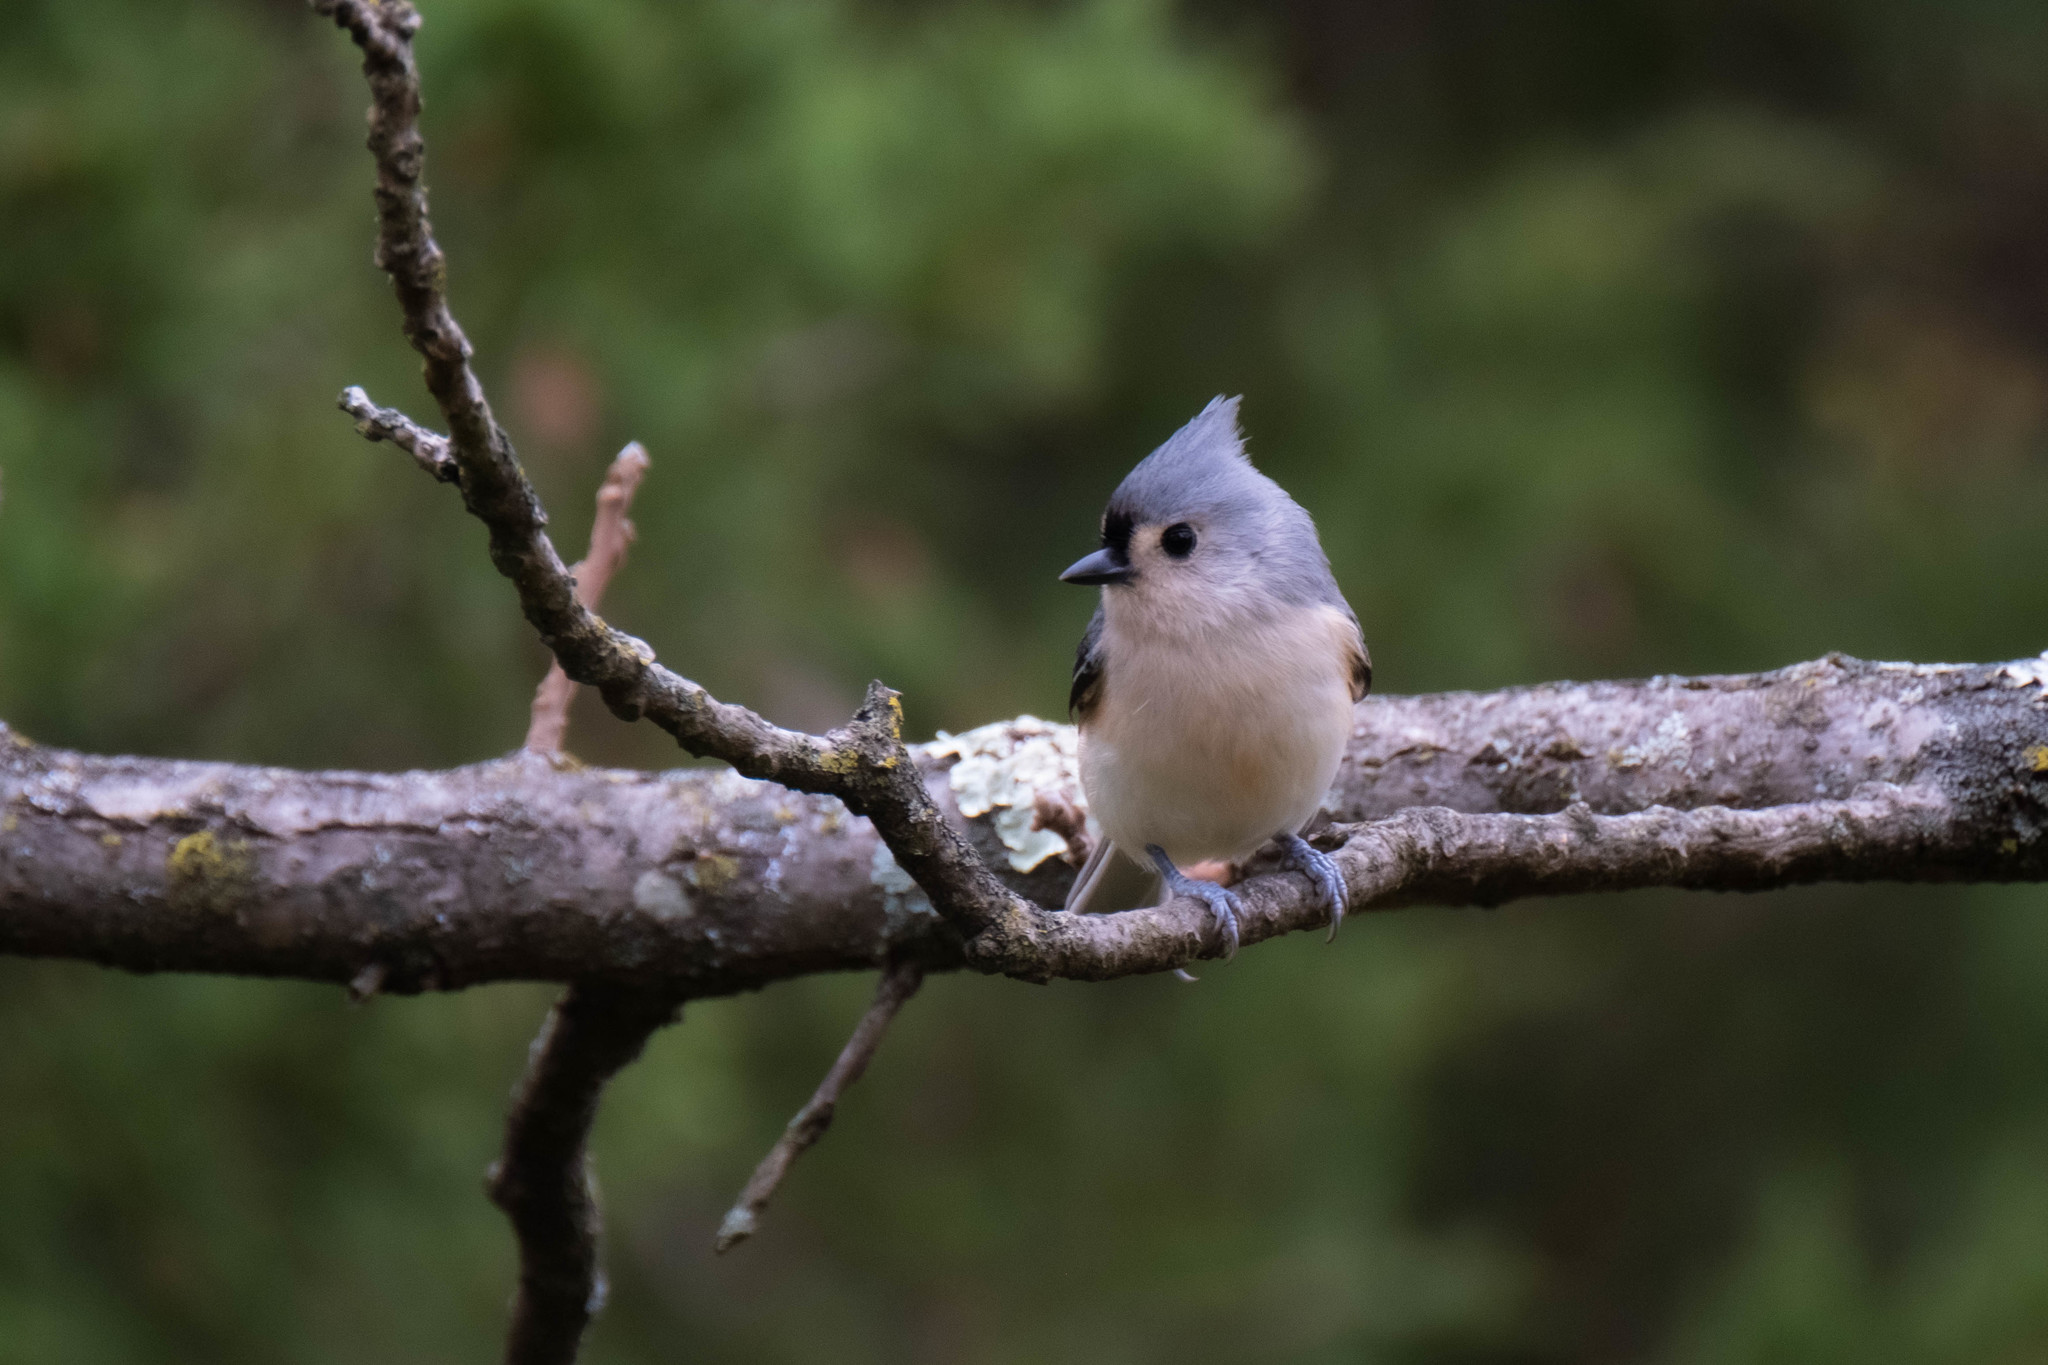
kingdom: Animalia
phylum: Chordata
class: Aves
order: Passeriformes
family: Paridae
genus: Baeolophus
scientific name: Baeolophus bicolor
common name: Tufted titmouse
